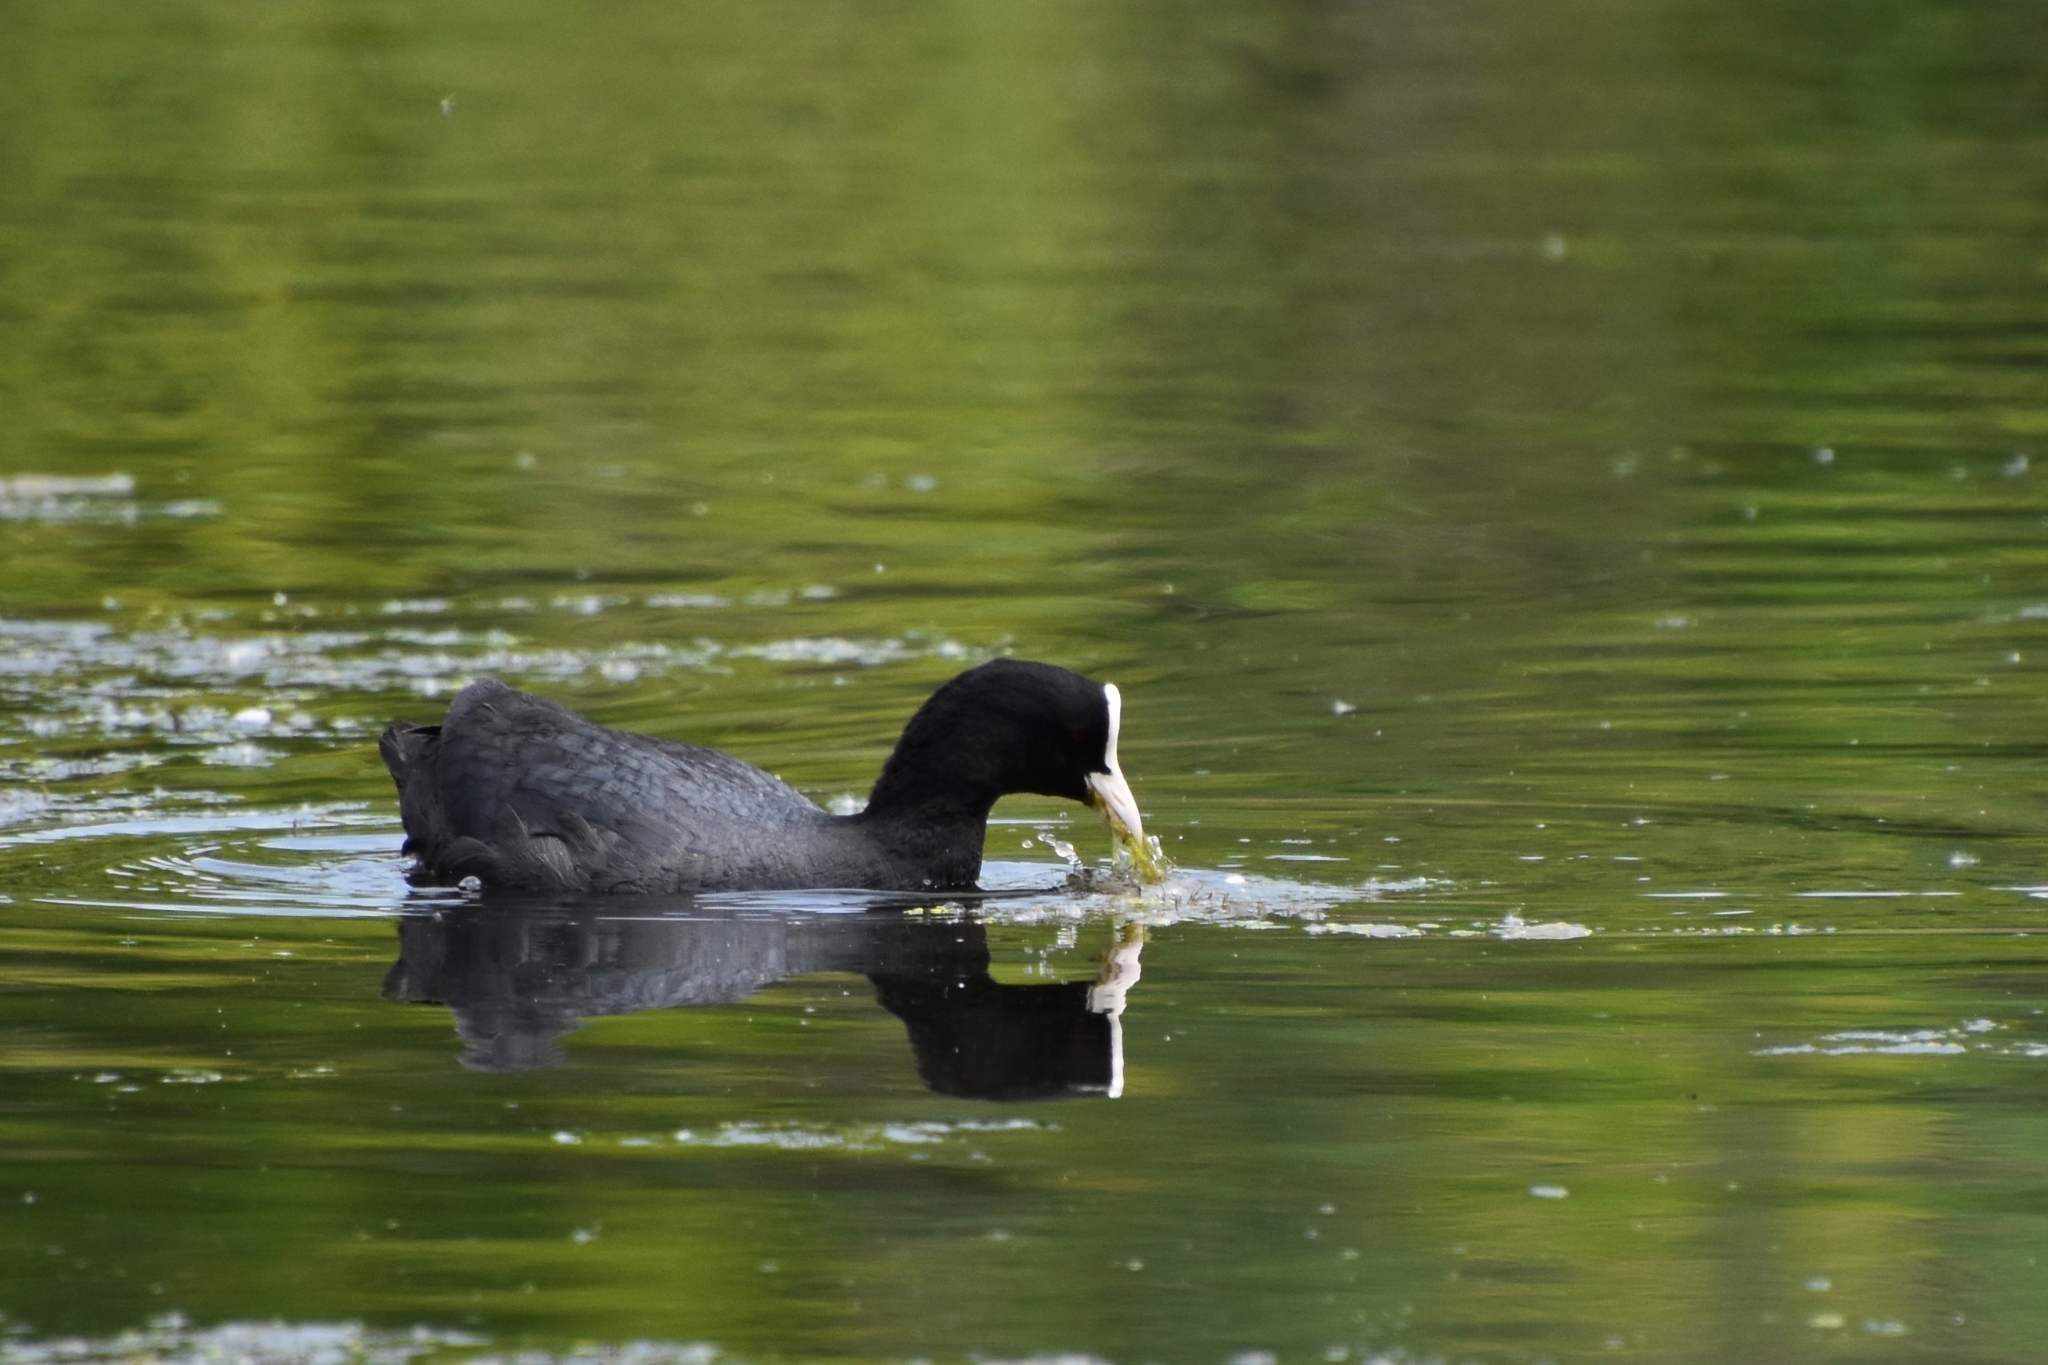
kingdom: Animalia
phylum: Chordata
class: Aves
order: Gruiformes
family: Rallidae
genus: Fulica
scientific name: Fulica atra
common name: Eurasian coot
